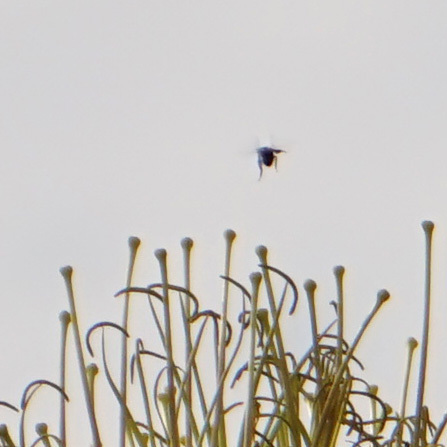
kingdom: Animalia
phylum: Arthropoda
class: Insecta
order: Hymenoptera
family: Apidae
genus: Apis
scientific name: Apis mellifera
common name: Honey bee
